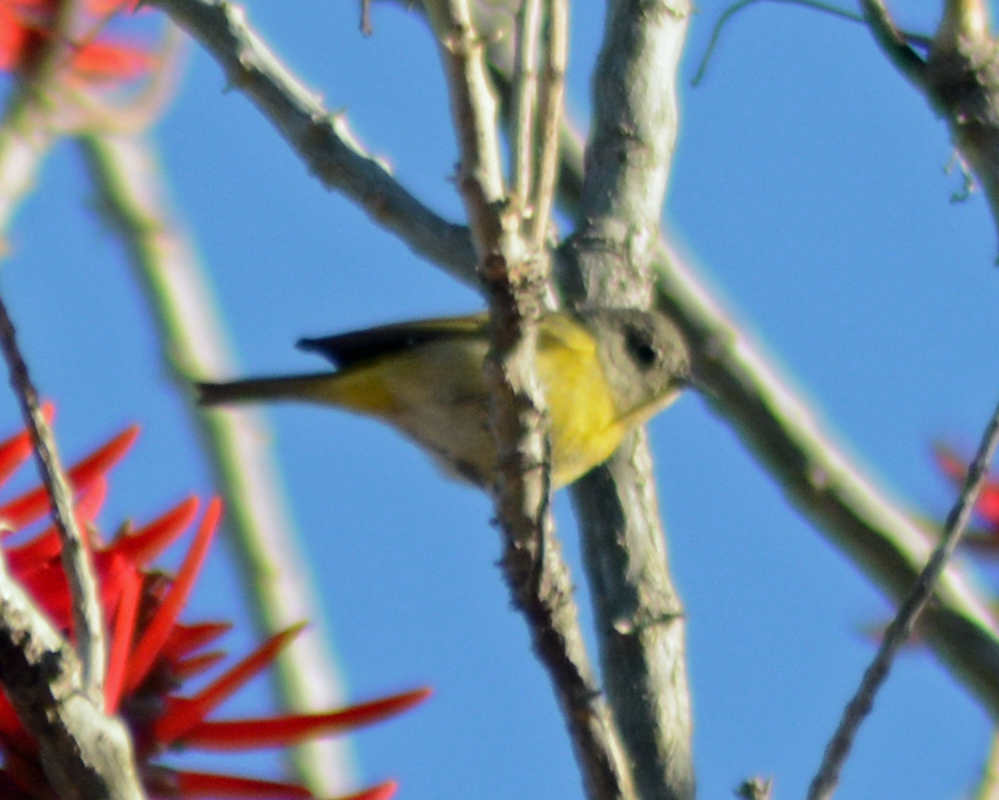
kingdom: Animalia
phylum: Chordata
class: Aves
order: Passeriformes
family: Parulidae
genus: Leiothlypis
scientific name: Leiothlypis ruficapilla
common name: Nashville warbler
